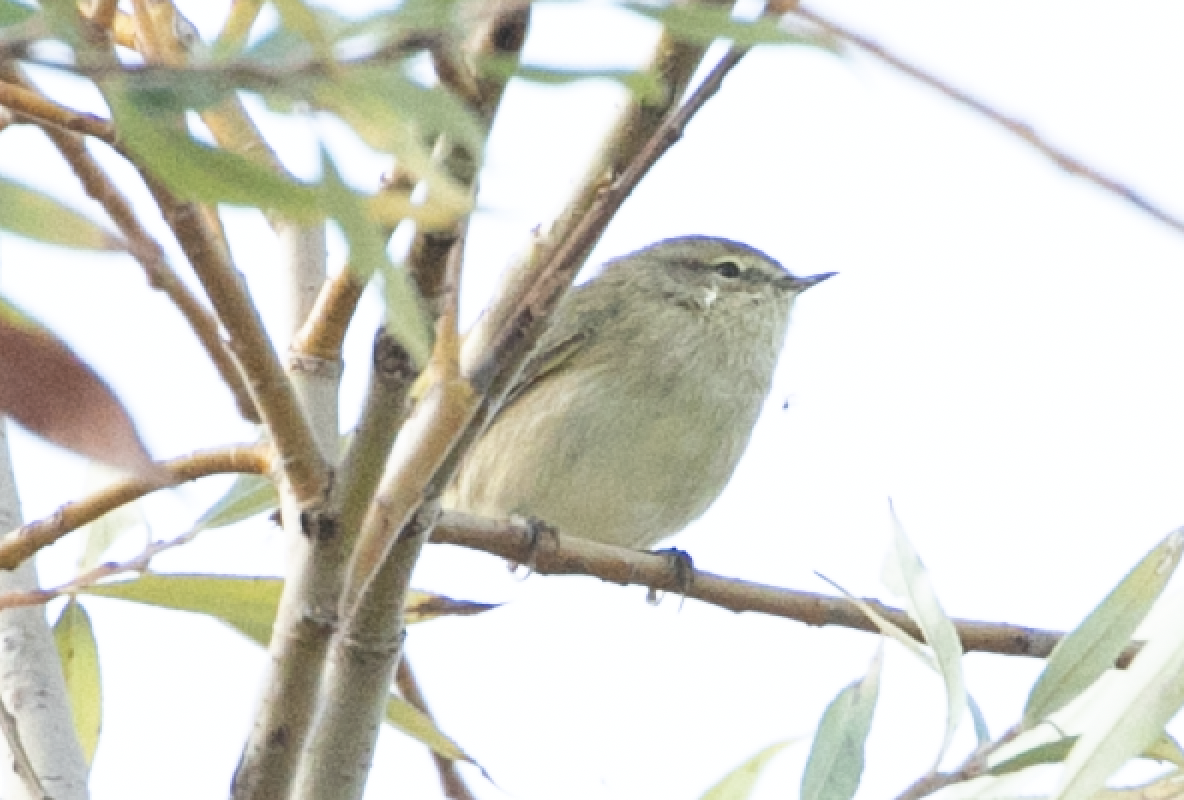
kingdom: Animalia
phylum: Chordata
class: Aves
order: Passeriformes
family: Phylloscopidae
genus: Phylloscopus
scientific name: Phylloscopus collybita
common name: Common chiffchaff
